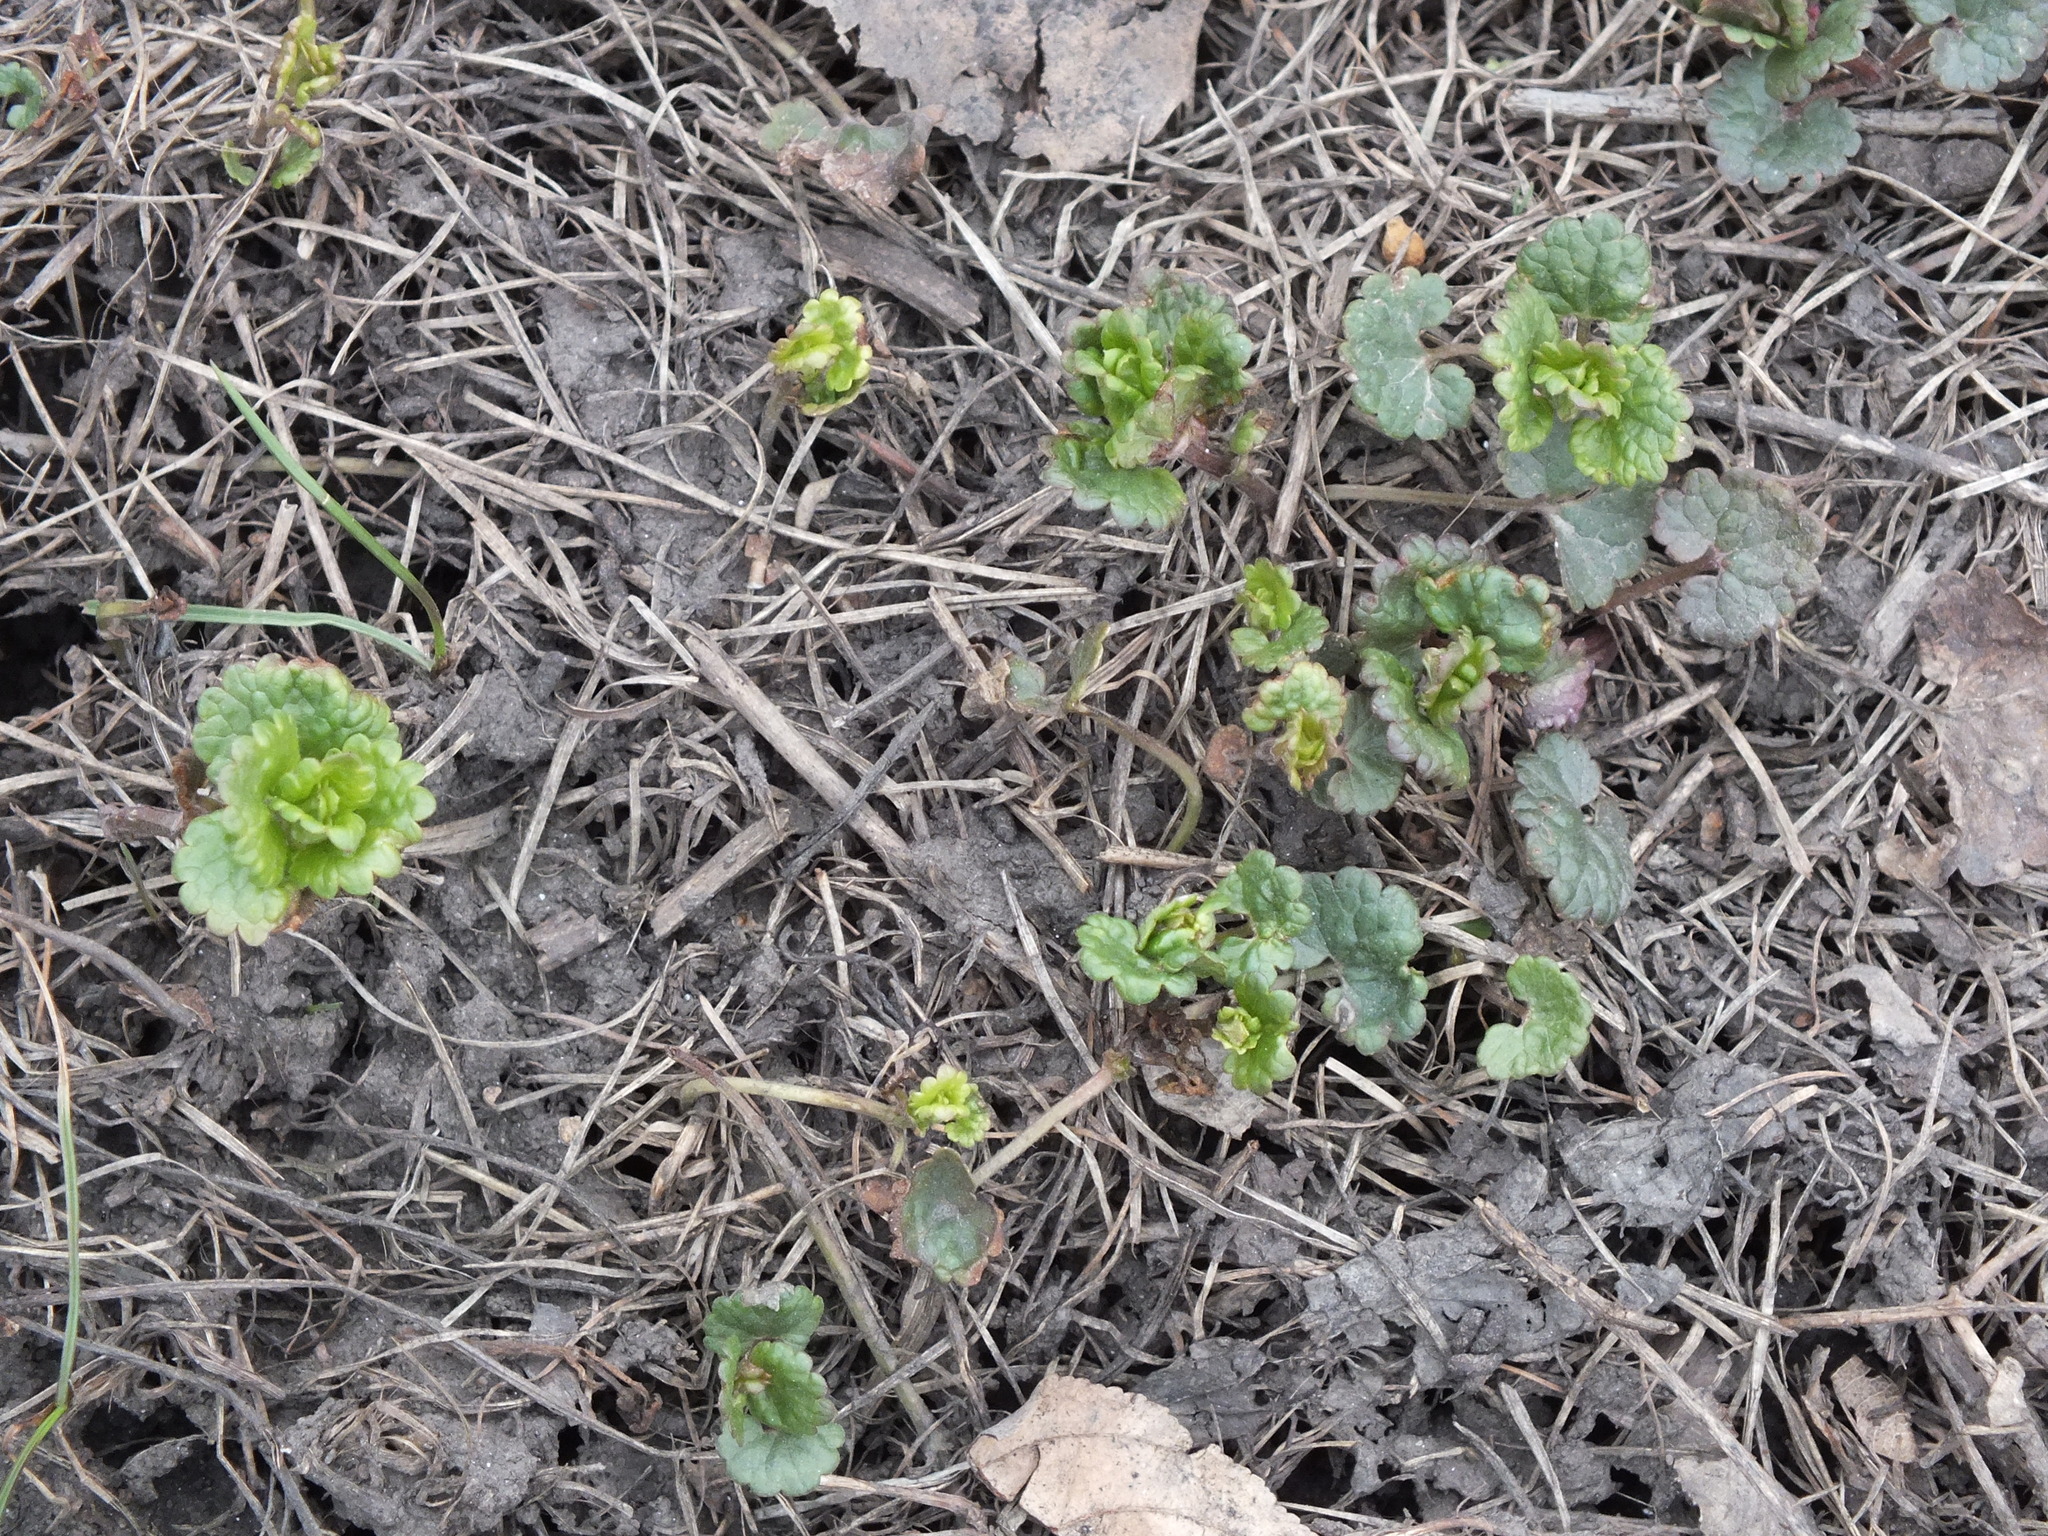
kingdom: Plantae
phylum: Tracheophyta
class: Magnoliopsida
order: Lamiales
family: Lamiaceae
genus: Glechoma
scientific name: Glechoma hederacea
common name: Ground ivy
